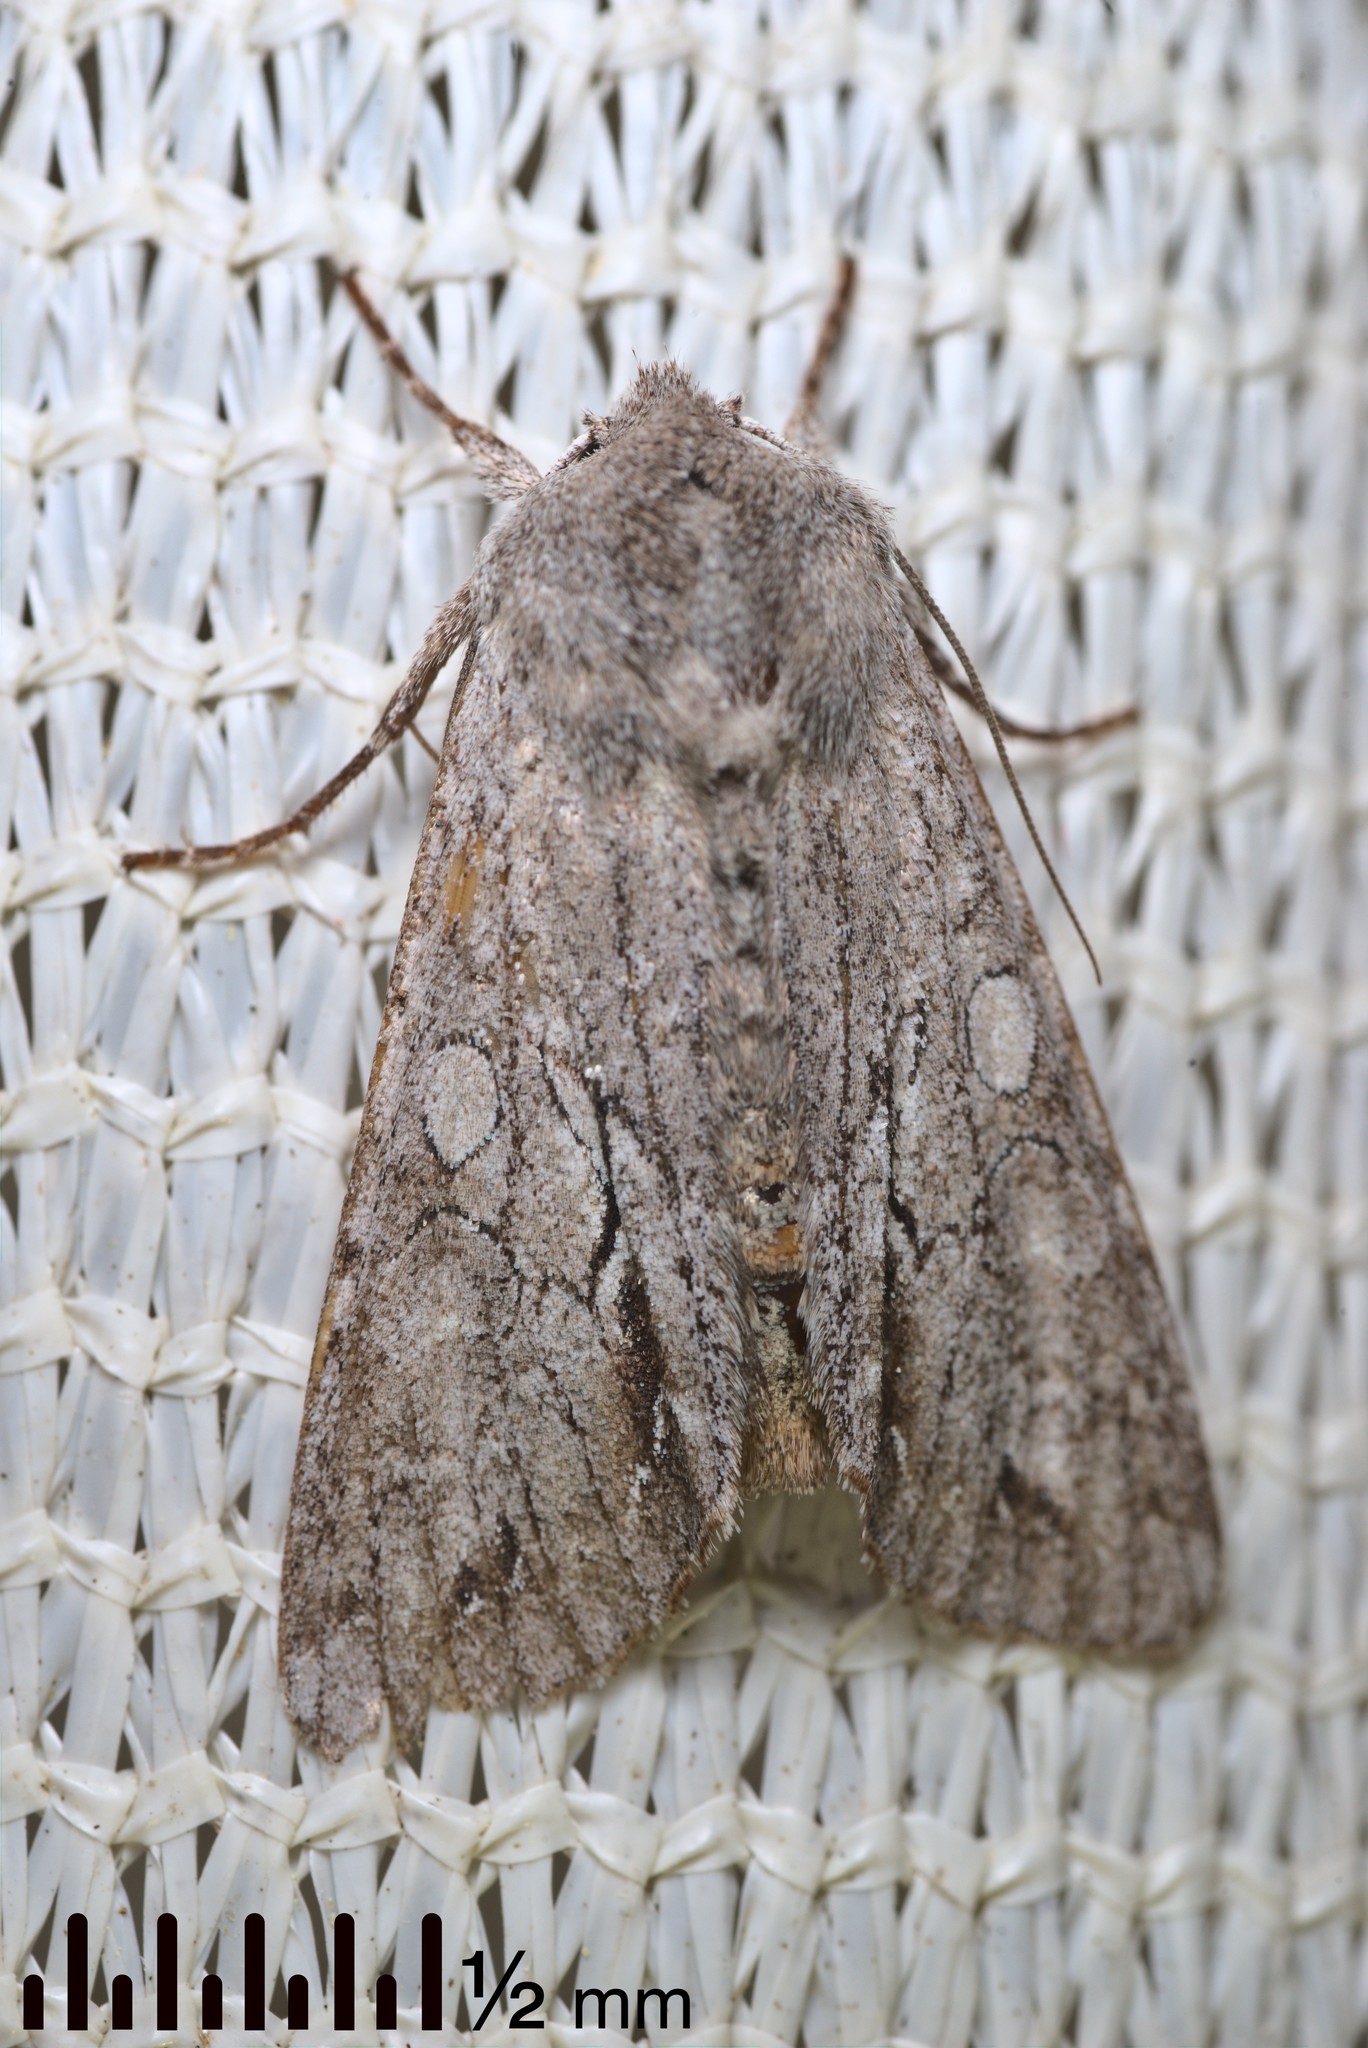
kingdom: Animalia
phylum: Arthropoda
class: Insecta
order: Lepidoptera
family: Noctuidae
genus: Ichneutica
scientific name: Ichneutica
